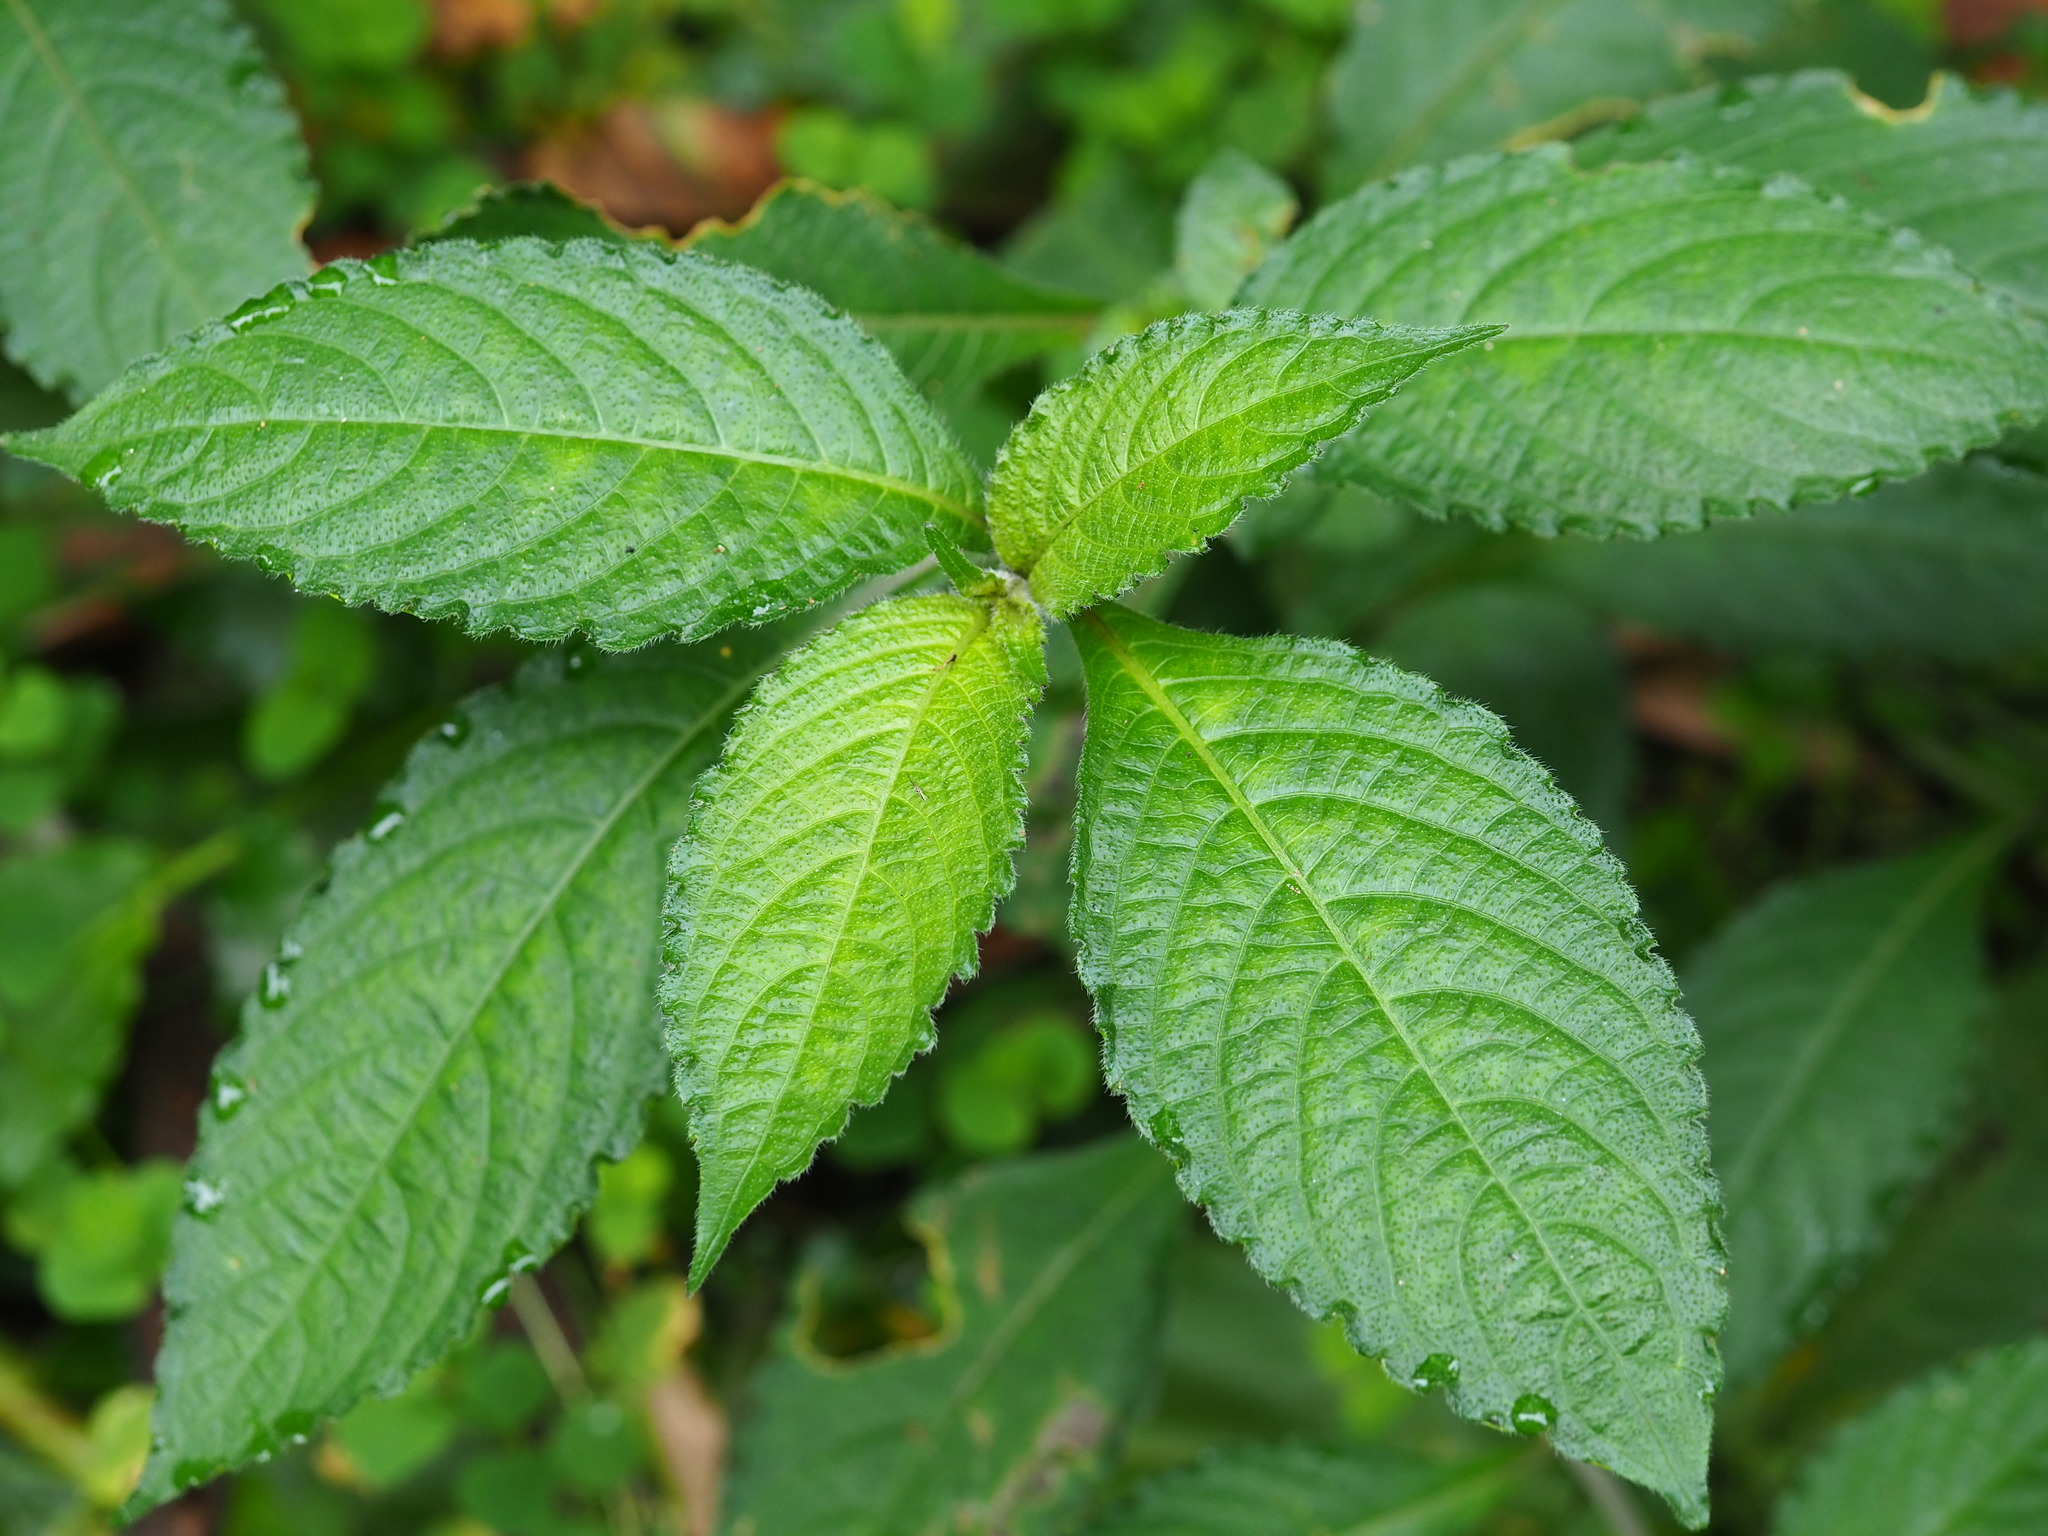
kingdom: Plantae
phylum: Tracheophyta
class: Magnoliopsida
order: Lamiales
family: Acanthaceae
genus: Strobilanthes
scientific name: Strobilanthes formosana
